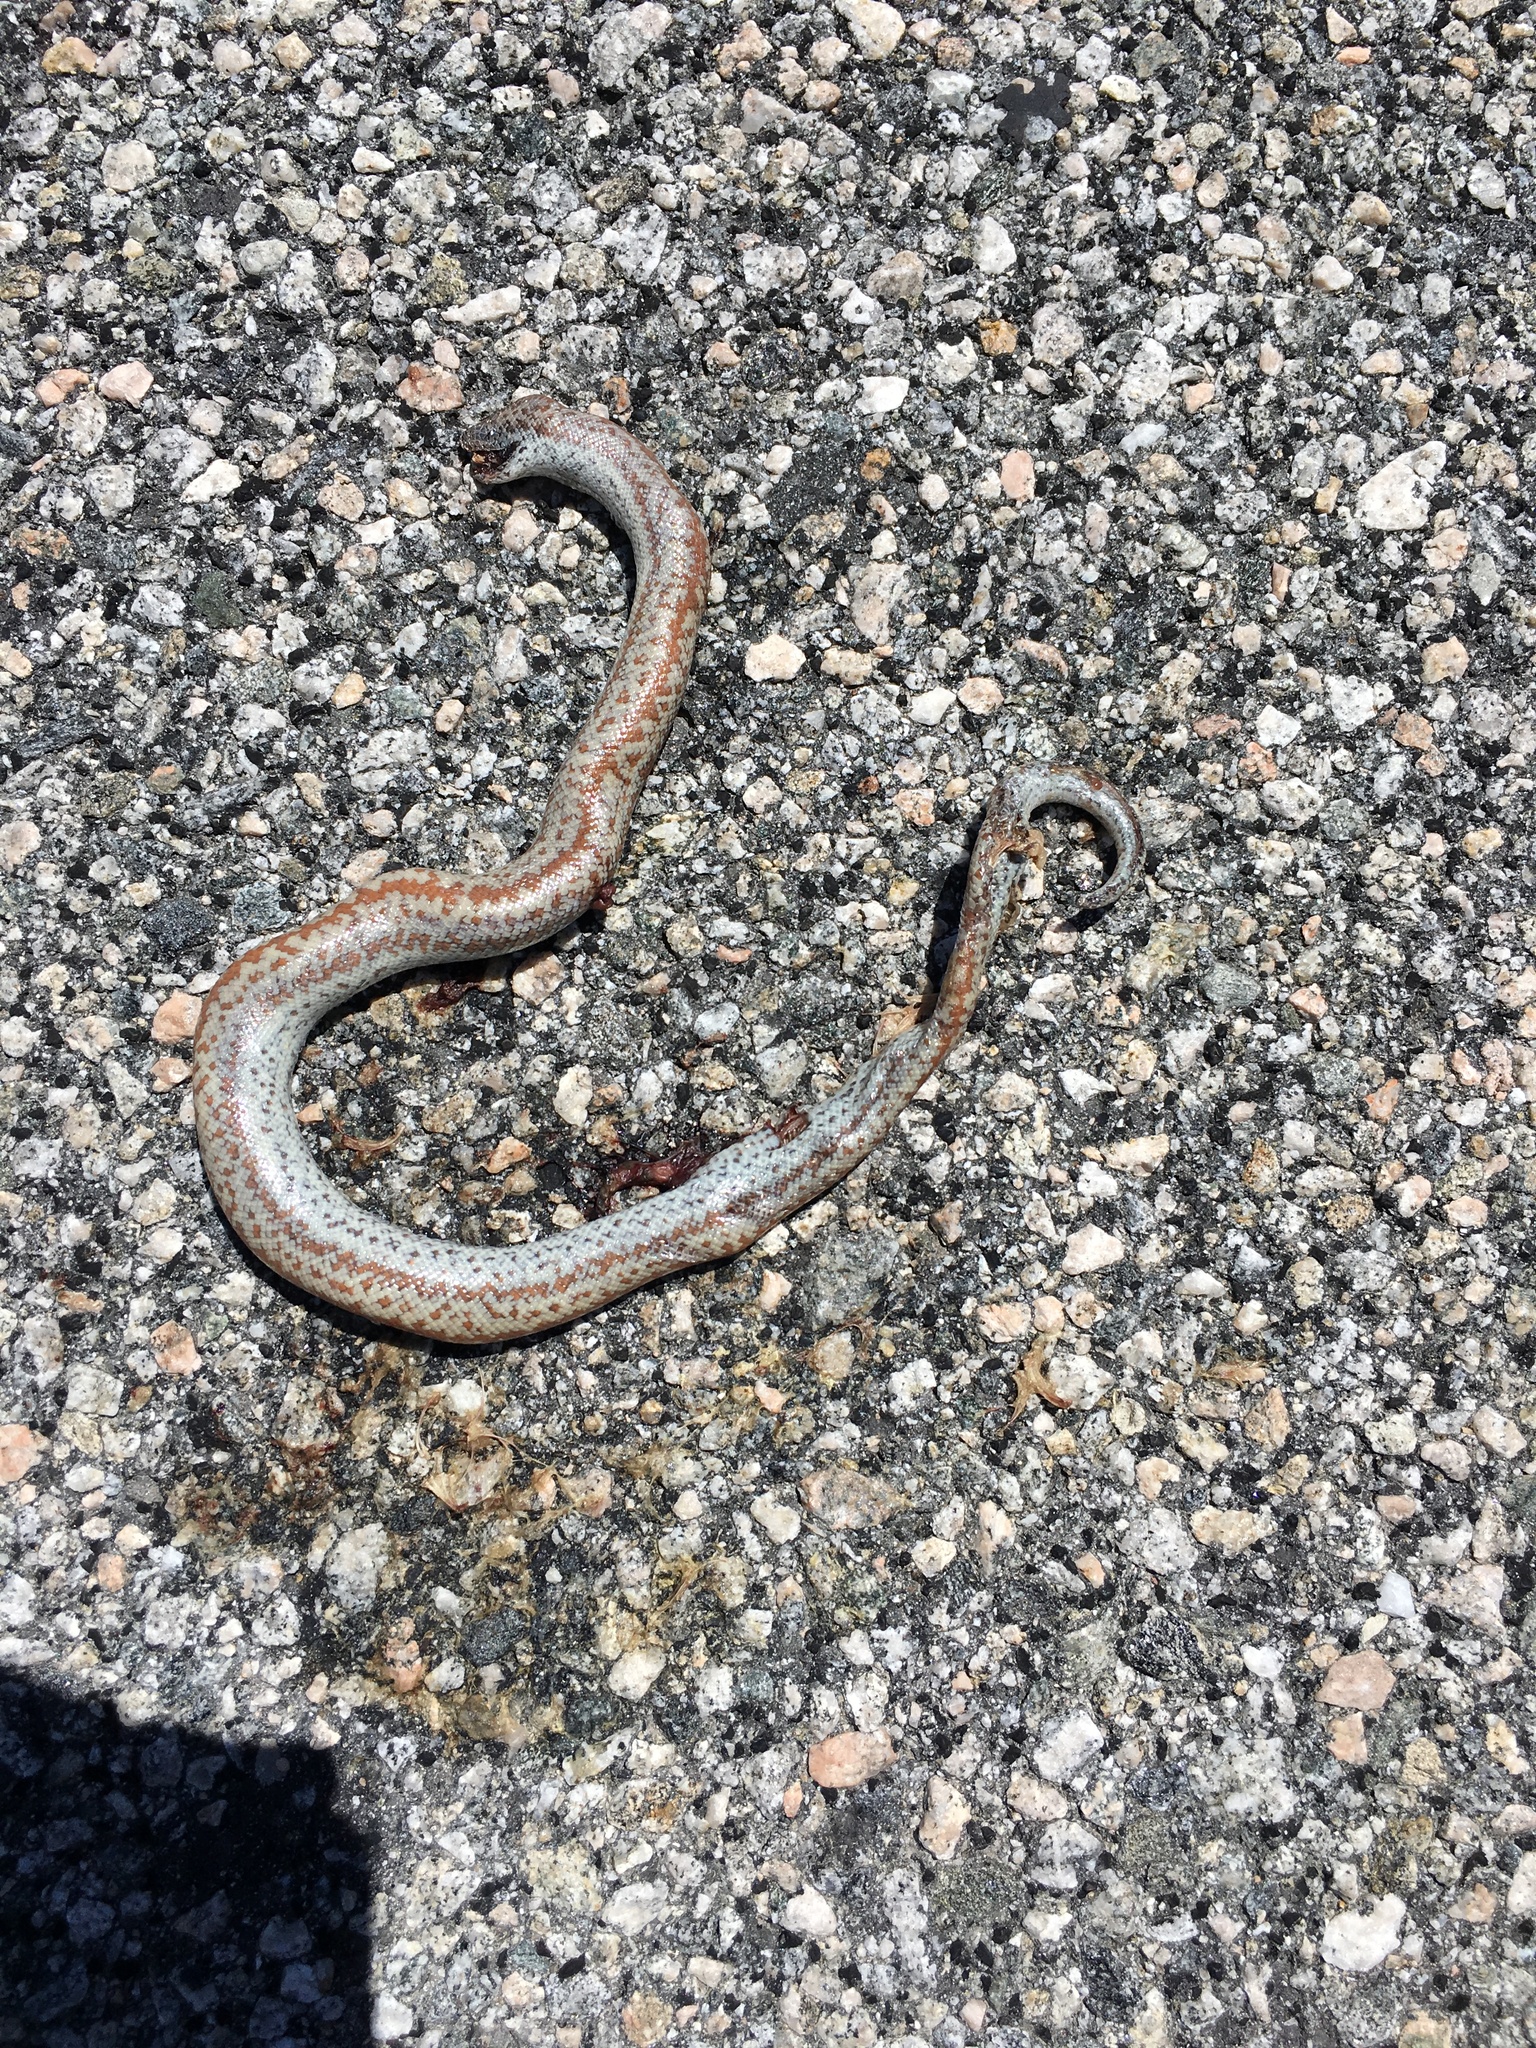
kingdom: Animalia
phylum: Chordata
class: Squamata
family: Boidae
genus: Lichanura
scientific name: Lichanura orcutti
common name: Northern three-lined boa
